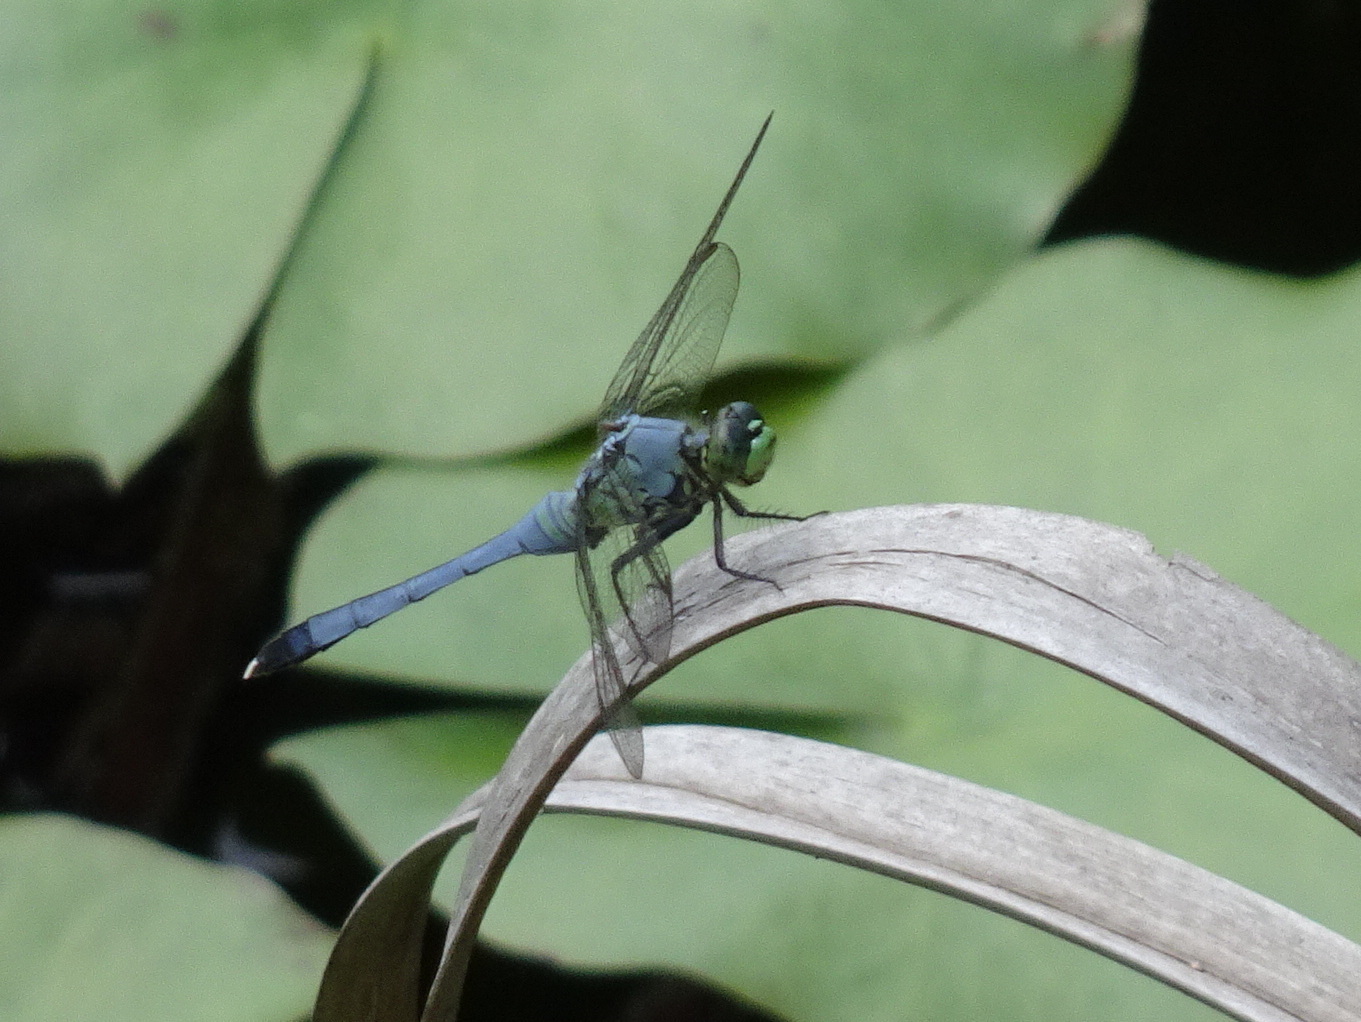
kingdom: Animalia
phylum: Arthropoda
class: Insecta
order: Odonata
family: Libellulidae
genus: Erythemis
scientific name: Erythemis simplicicollis
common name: Eastern pondhawk
